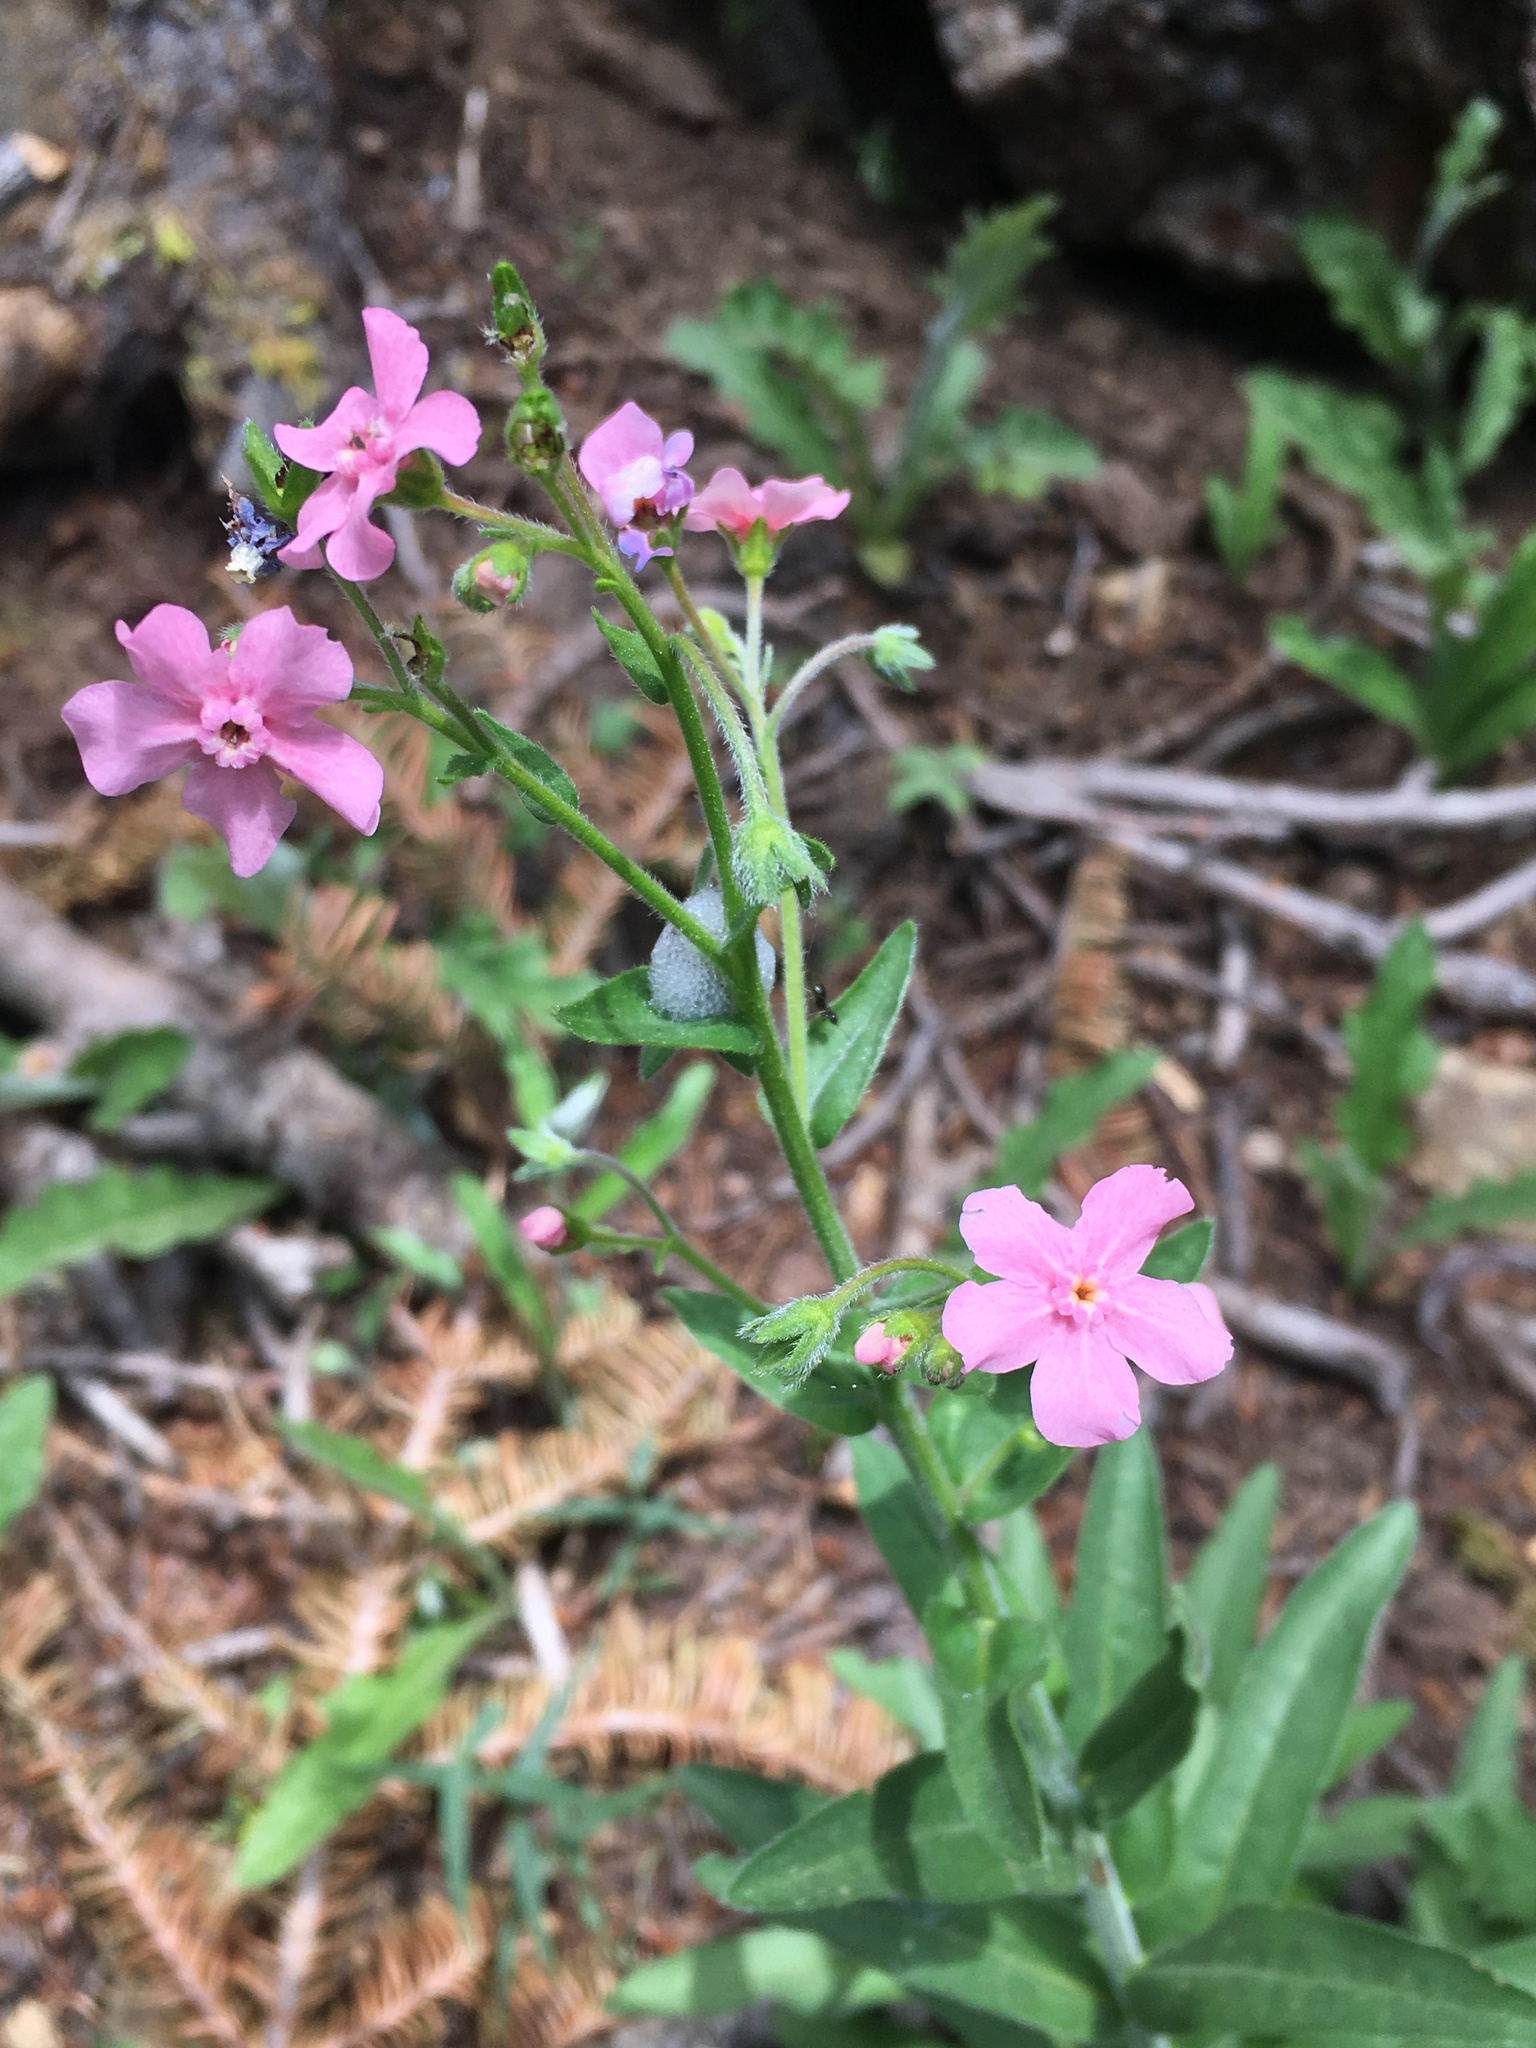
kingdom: Plantae
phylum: Tracheophyta
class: Magnoliopsida
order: Boraginales
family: Boraginaceae
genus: Hackelia
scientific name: Hackelia mundula
